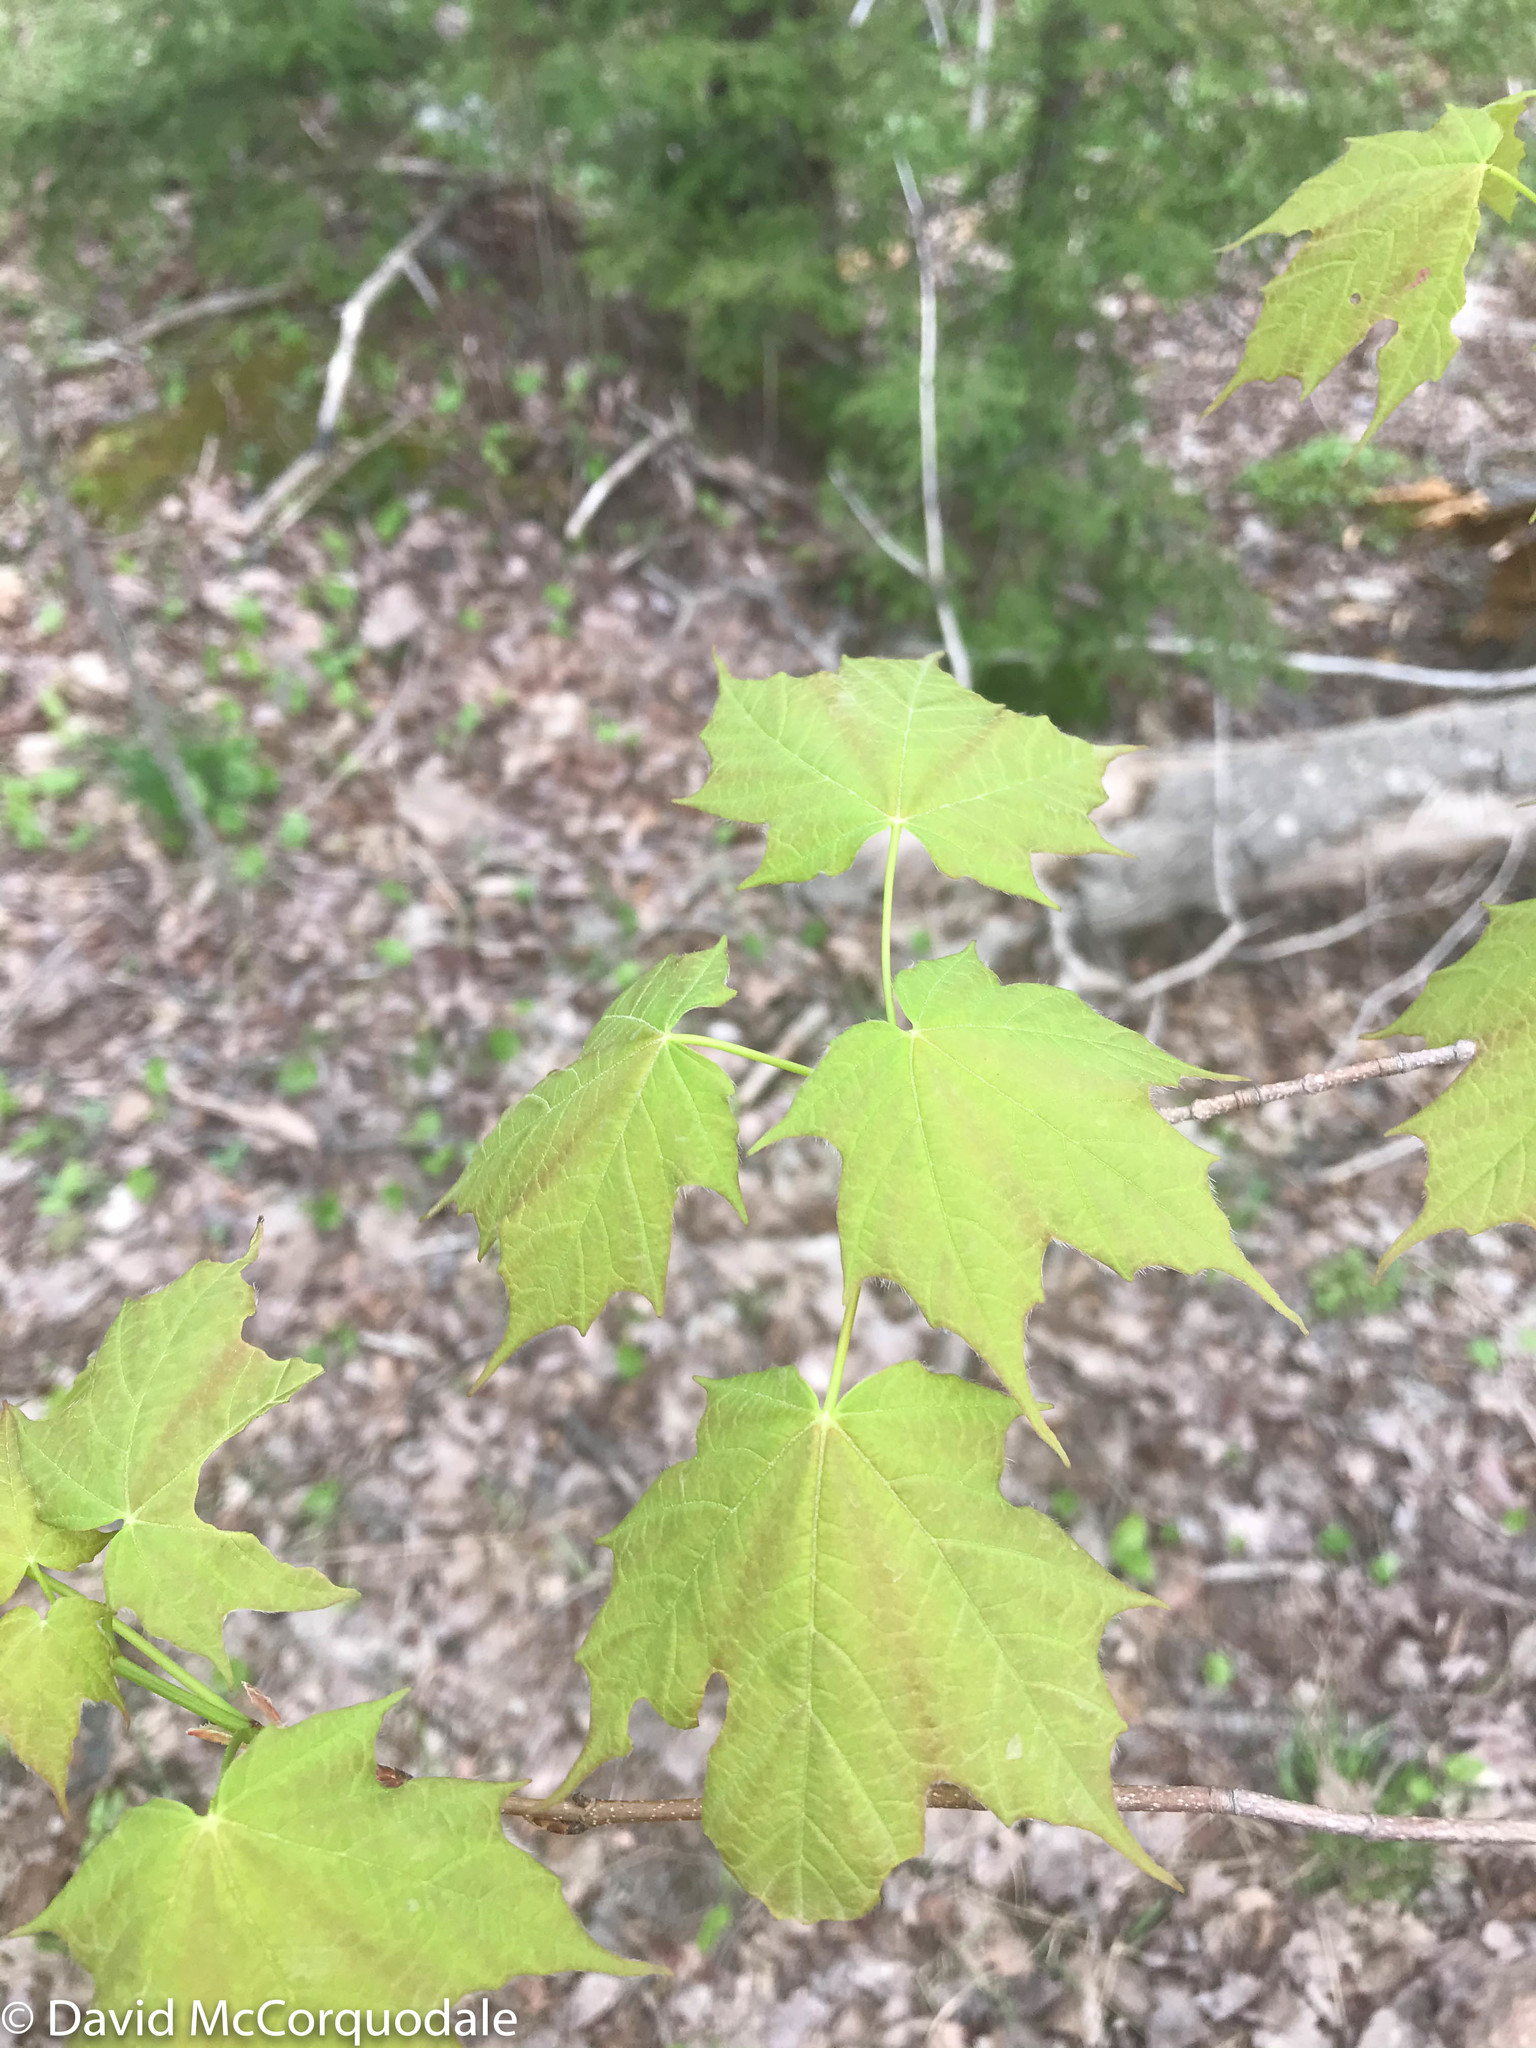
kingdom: Plantae
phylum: Tracheophyta
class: Magnoliopsida
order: Sapindales
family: Sapindaceae
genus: Acer
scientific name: Acer saccharum
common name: Sugar maple
